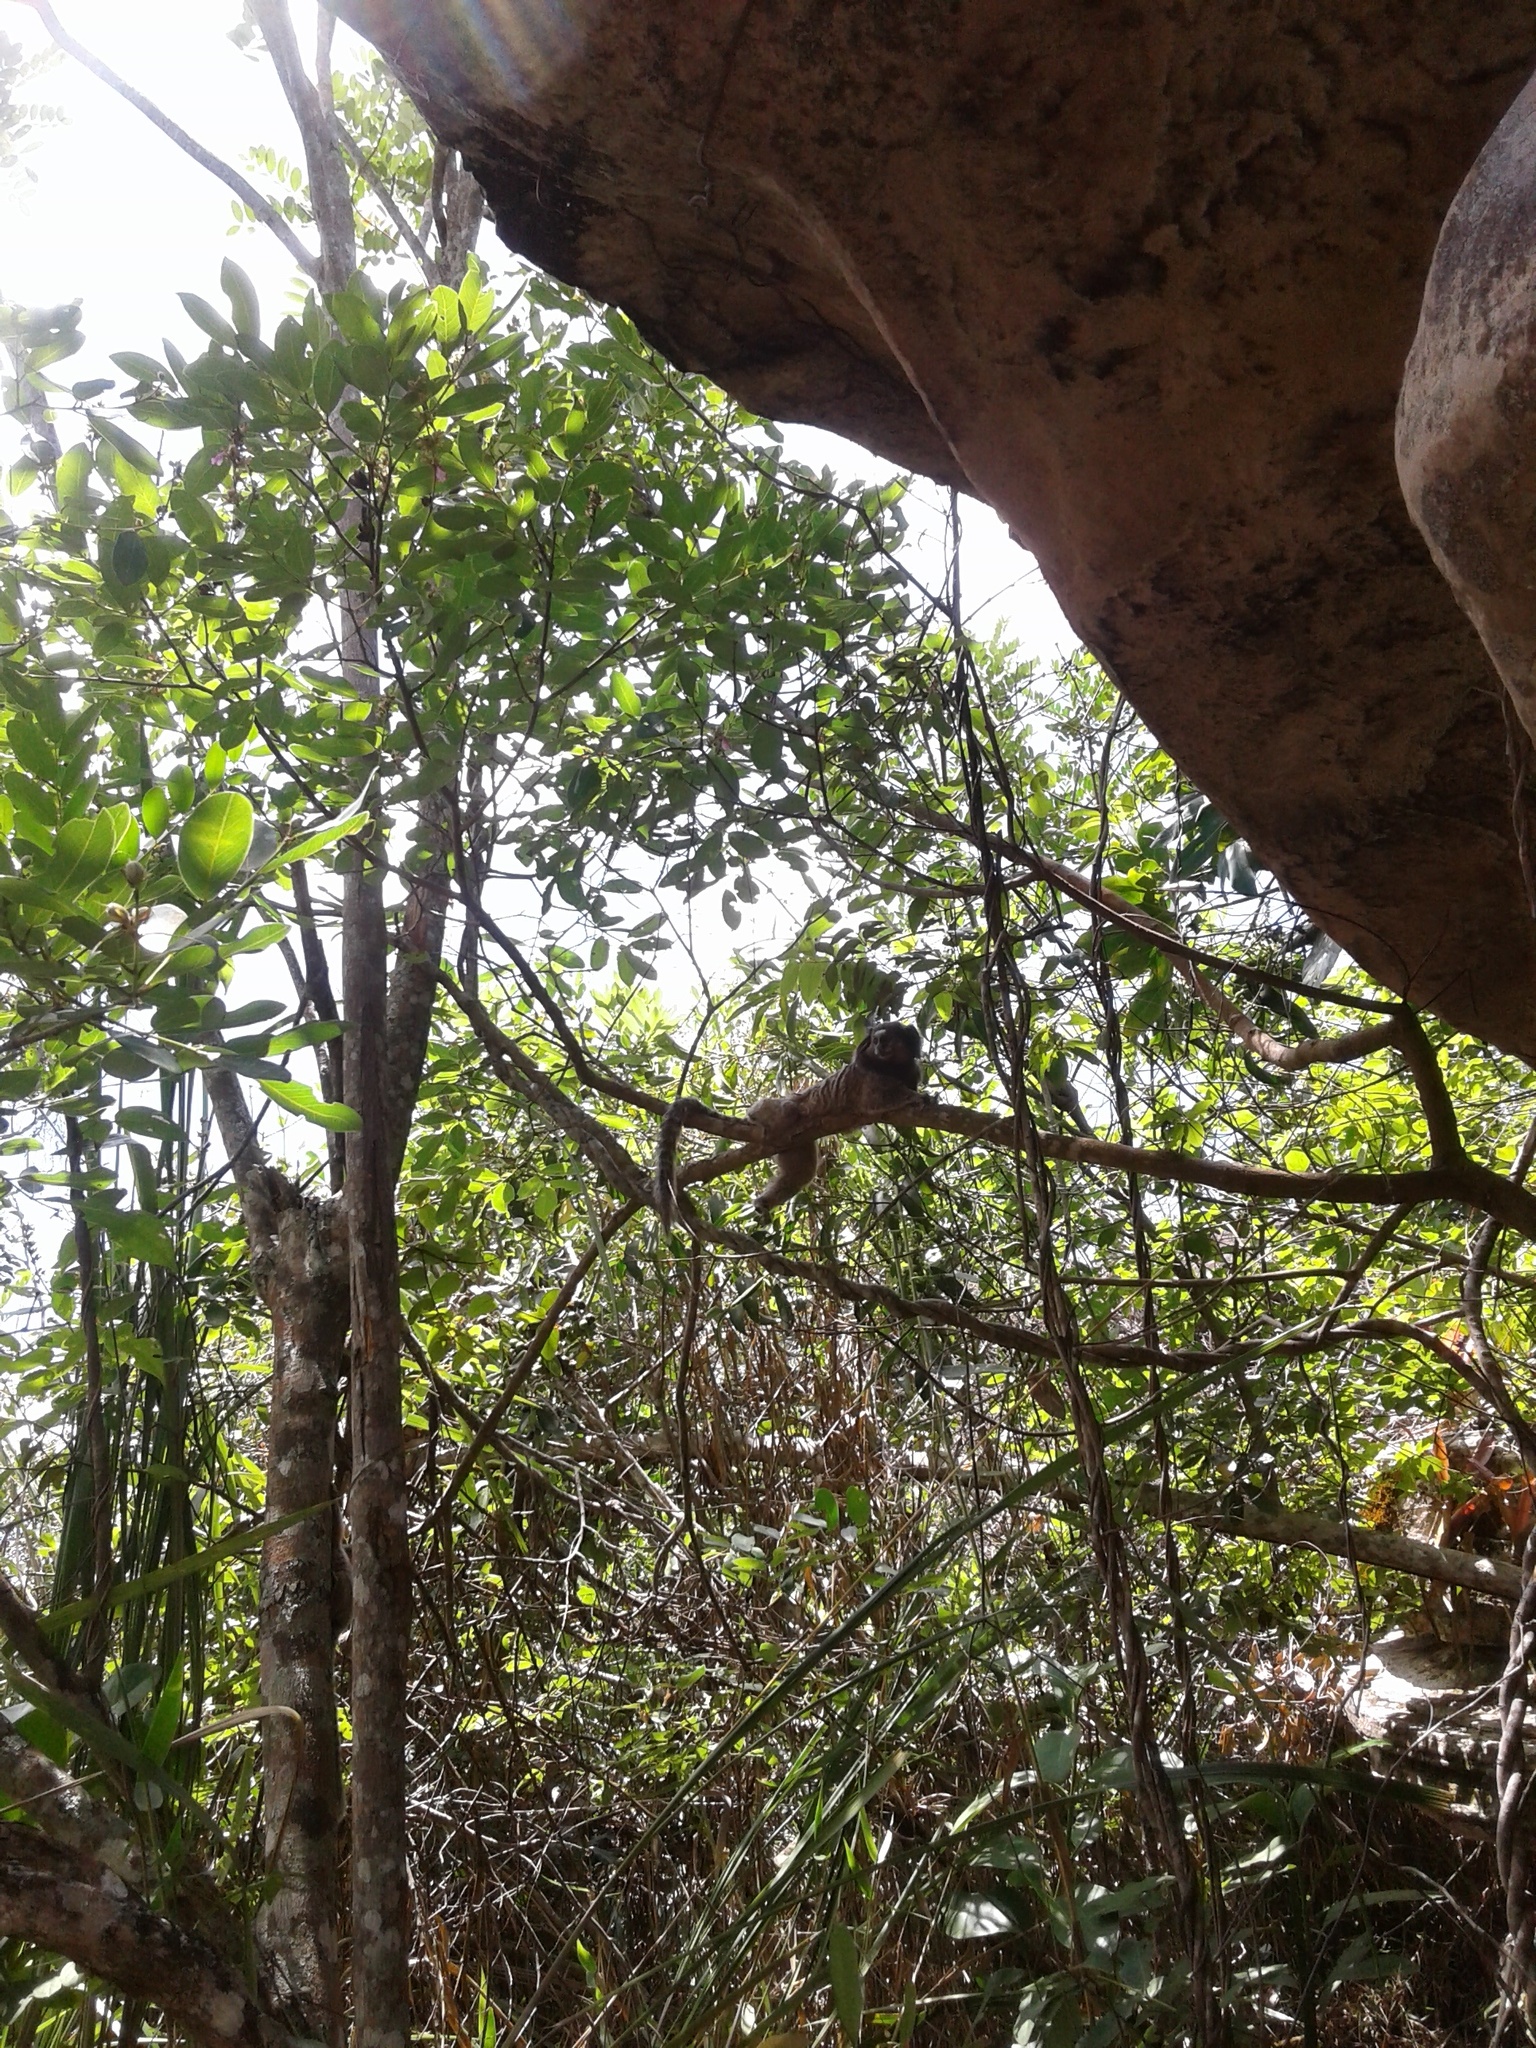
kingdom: Animalia
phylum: Chordata
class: Mammalia
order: Primates
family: Callitrichidae
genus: Callithrix
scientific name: Callithrix penicillata
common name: Black-tufted marmoset
